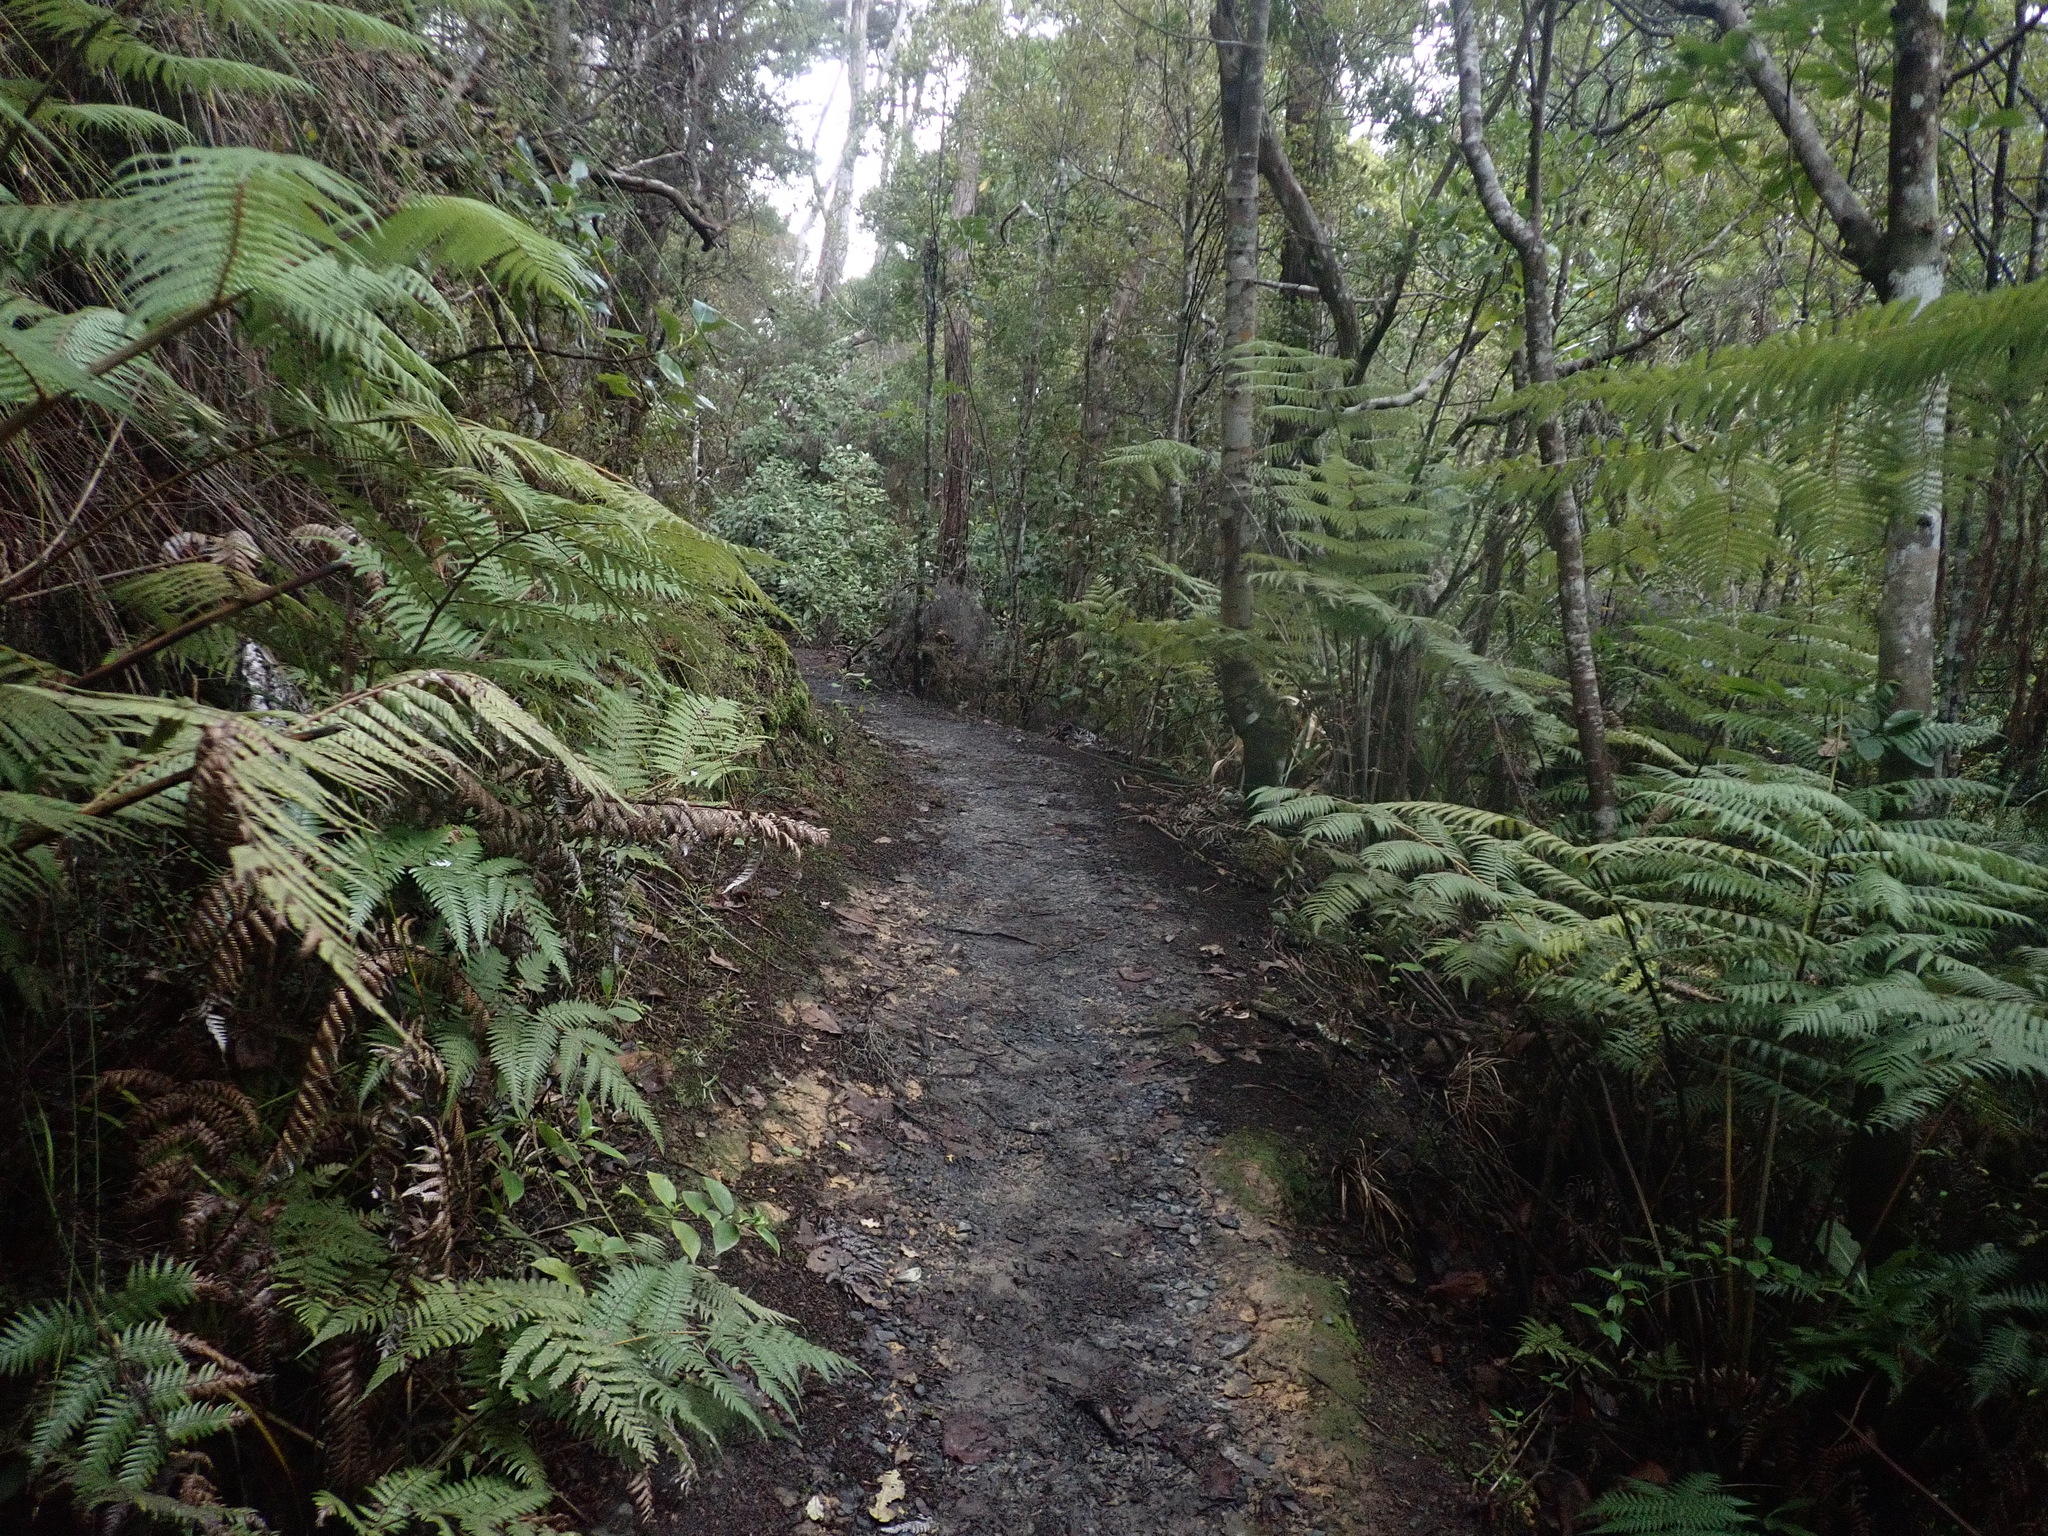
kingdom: Plantae
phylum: Tracheophyta
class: Polypodiopsida
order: Cyatheales
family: Cyatheaceae
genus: Alsophila
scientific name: Alsophila dealbata
